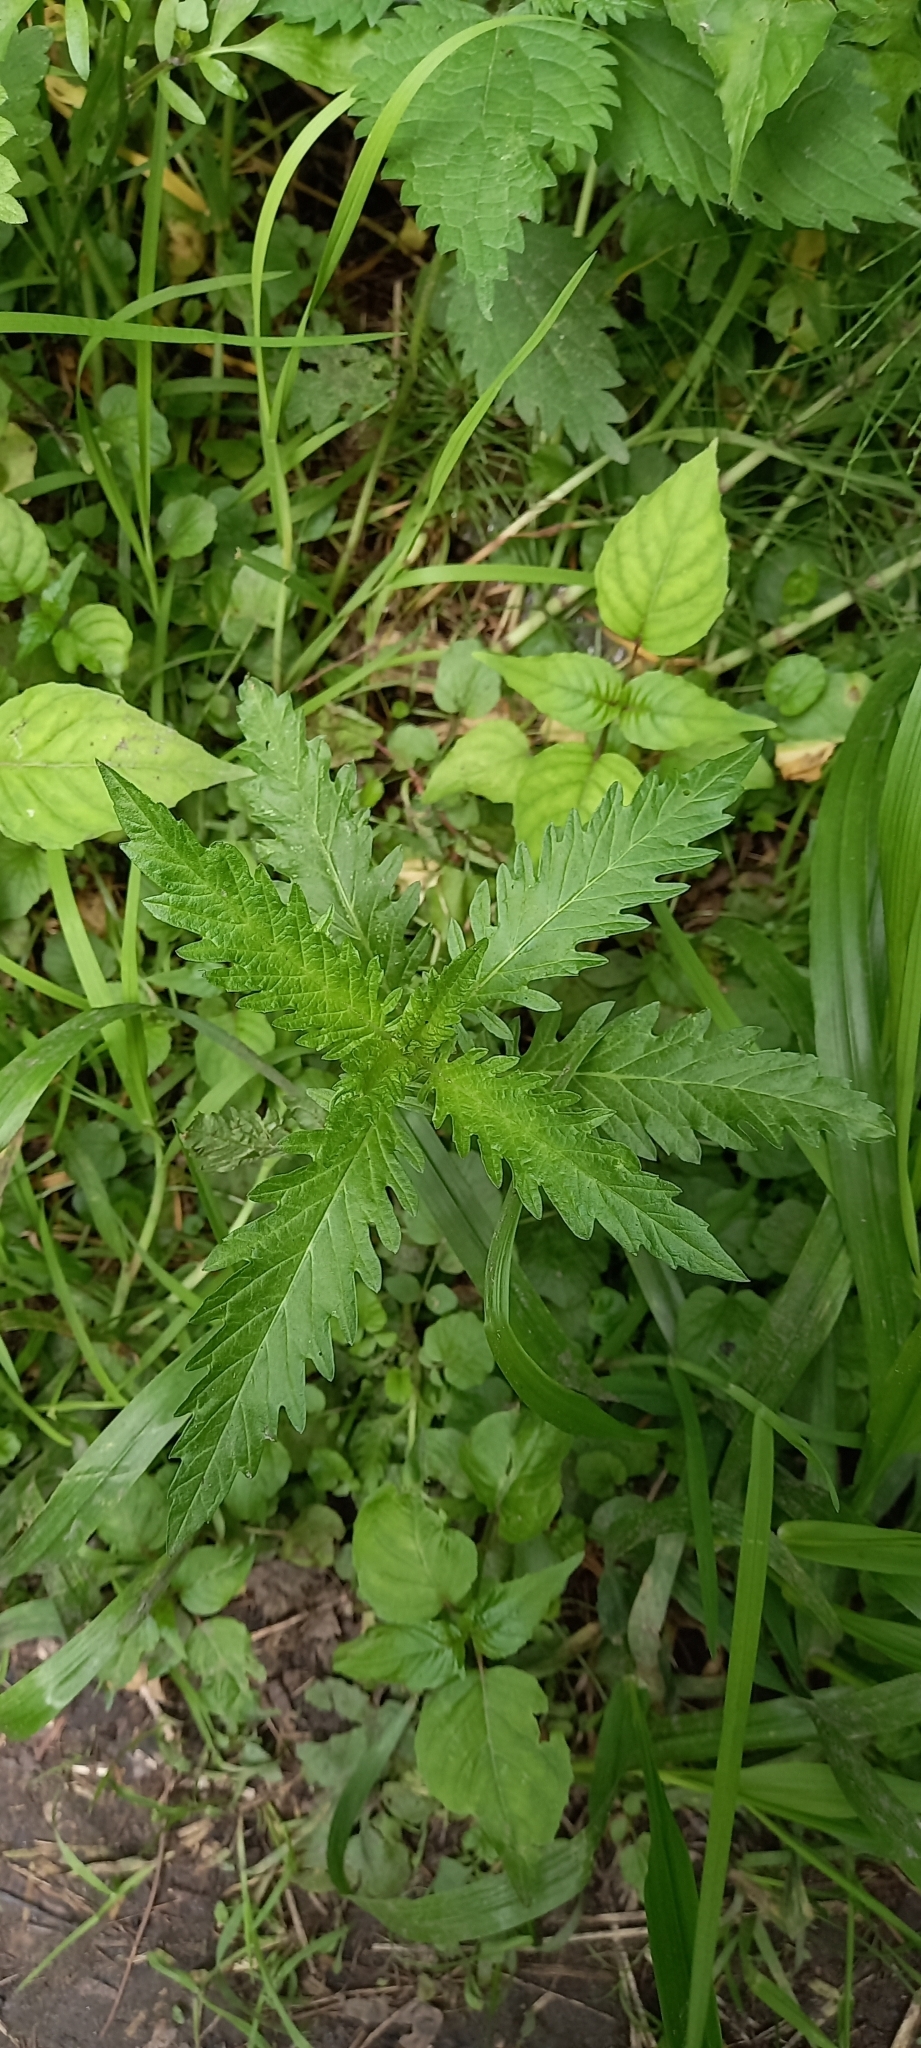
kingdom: Plantae
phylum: Tracheophyta
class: Magnoliopsida
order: Lamiales
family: Lamiaceae
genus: Lycopus
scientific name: Lycopus europaeus
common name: European bugleweed
